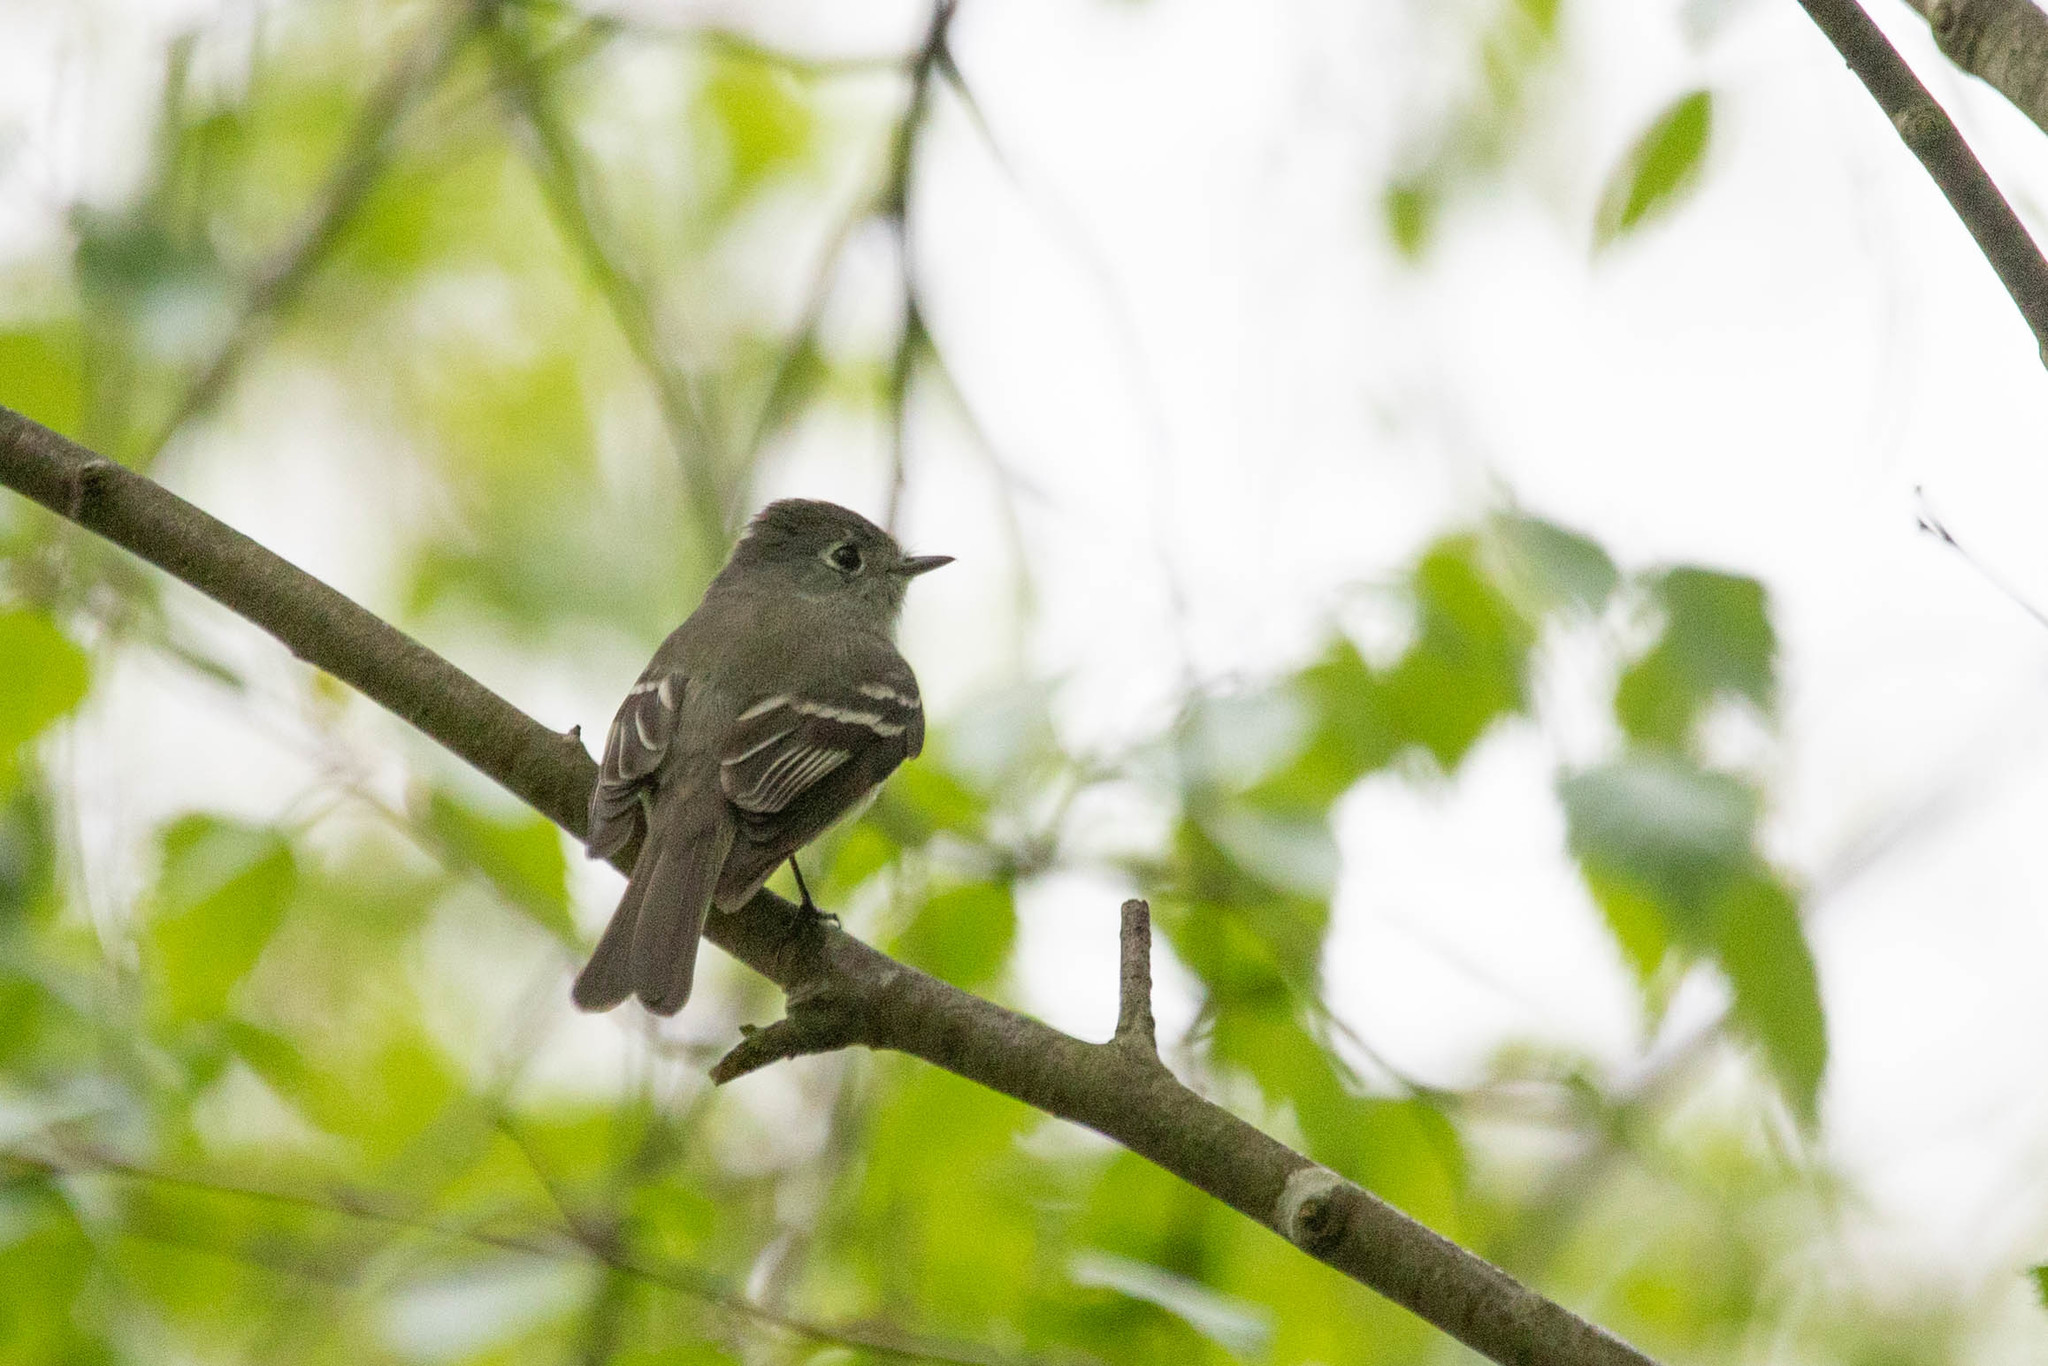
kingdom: Animalia
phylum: Chordata
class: Aves
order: Passeriformes
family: Tyrannidae
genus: Empidonax
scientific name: Empidonax hammondii
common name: Hammond's flycatcher
